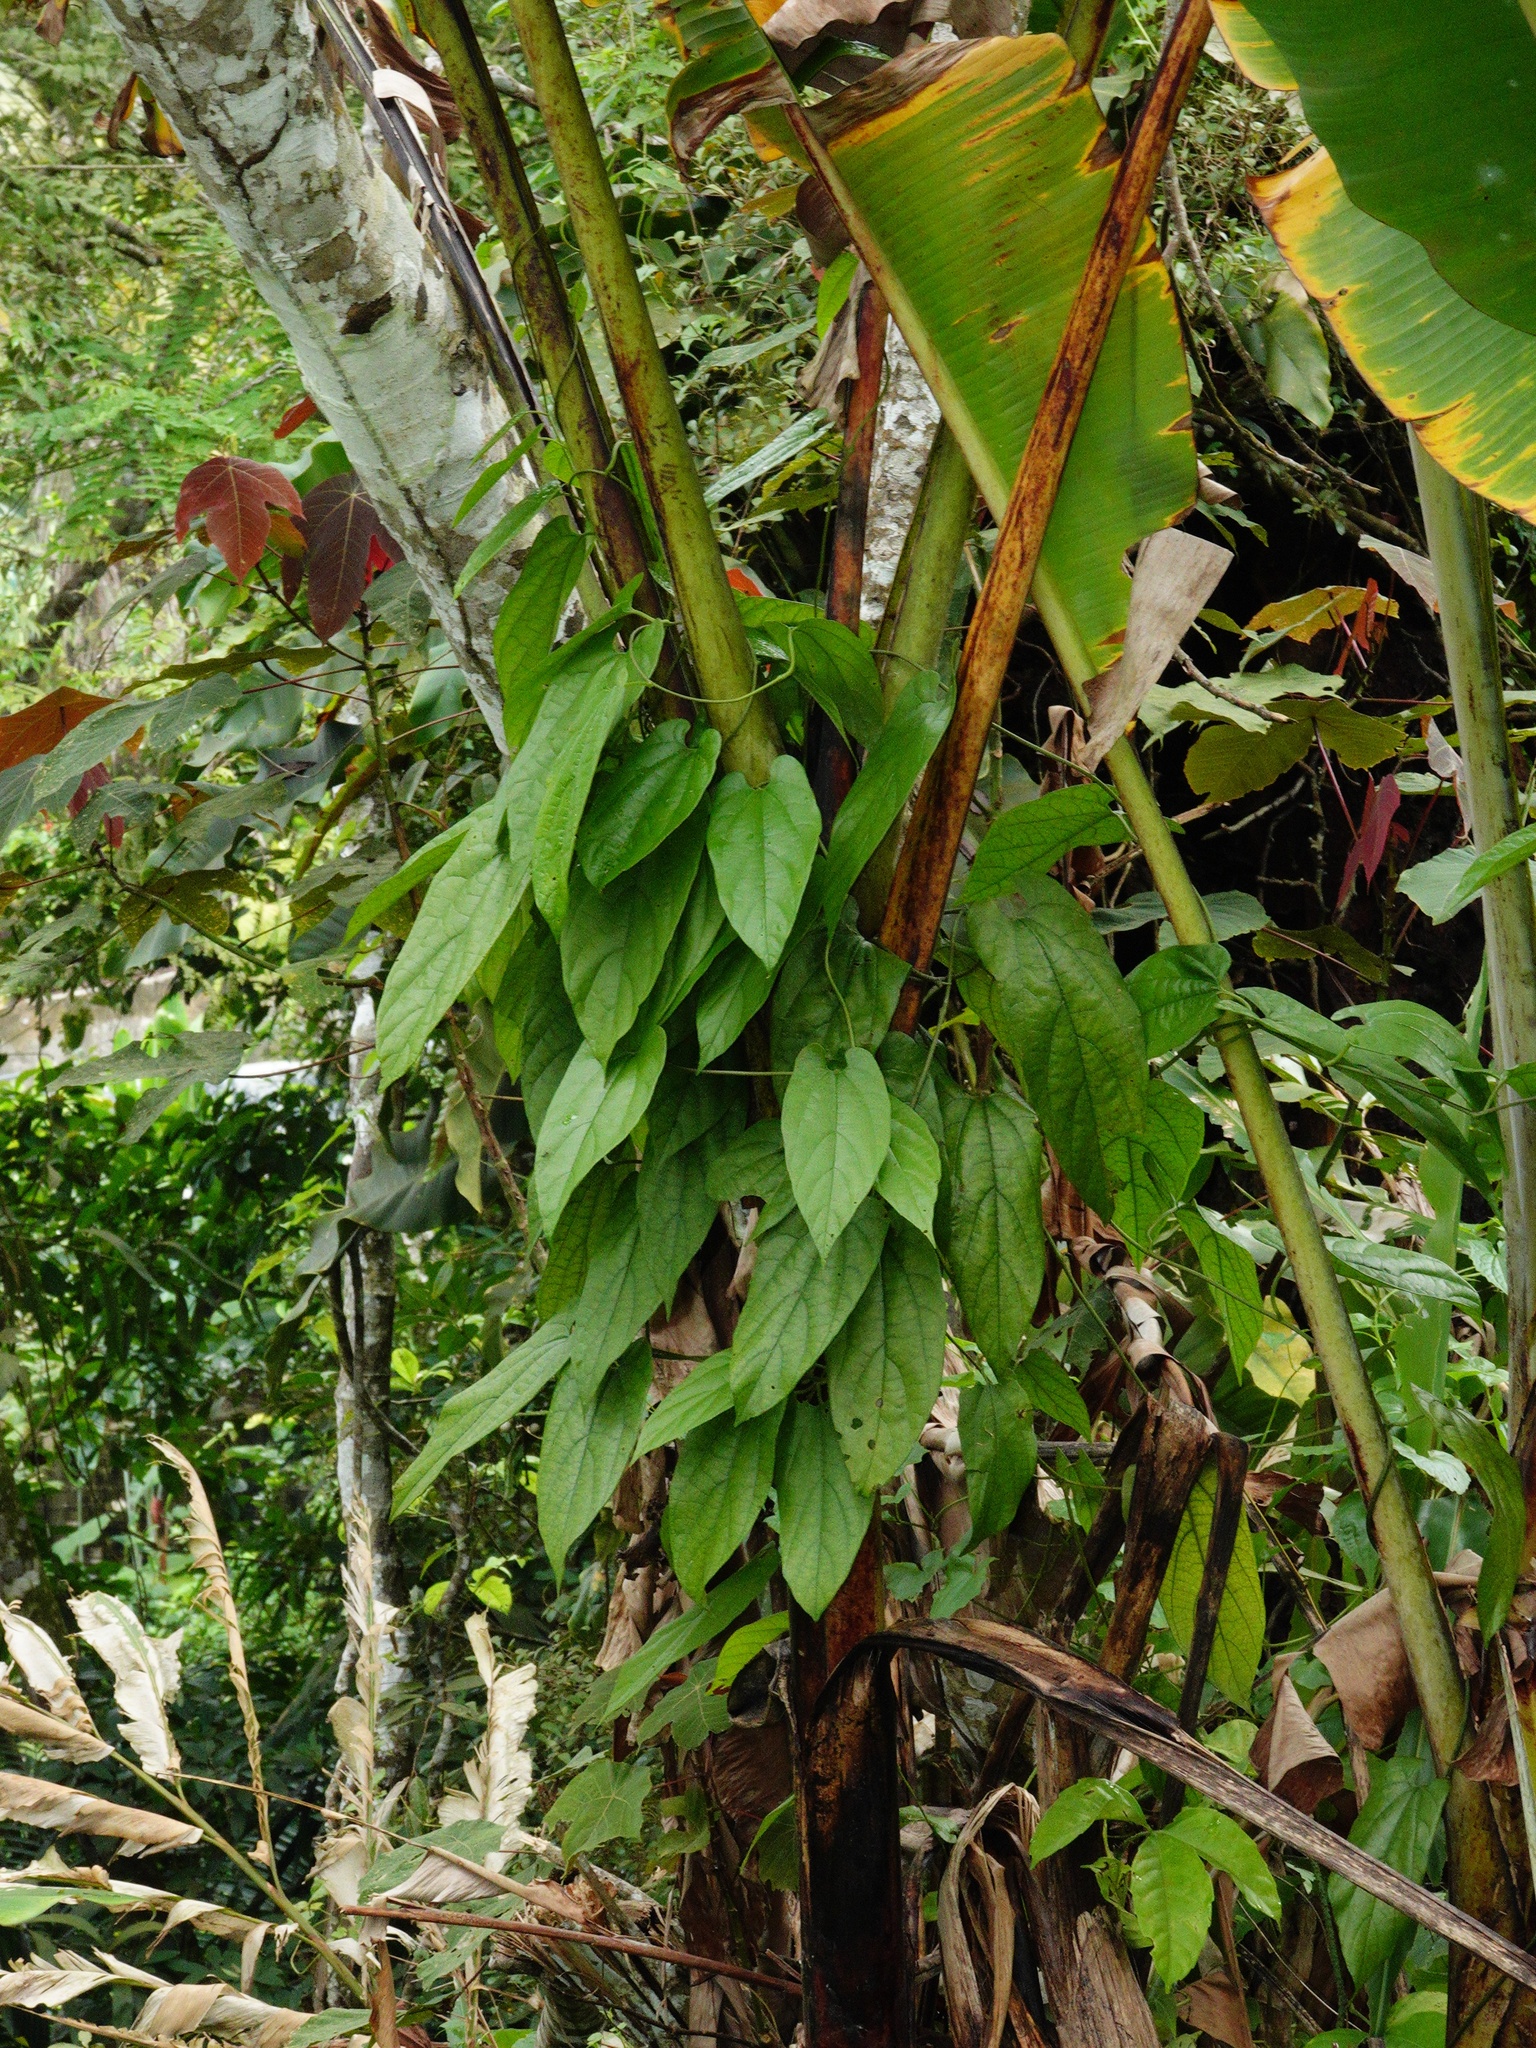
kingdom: Plantae
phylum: Tracheophyta
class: Magnoliopsida
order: Piperales
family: Aristolochiaceae
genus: Aristolochia
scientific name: Aristolochia acuminata
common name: Indian birthwort
